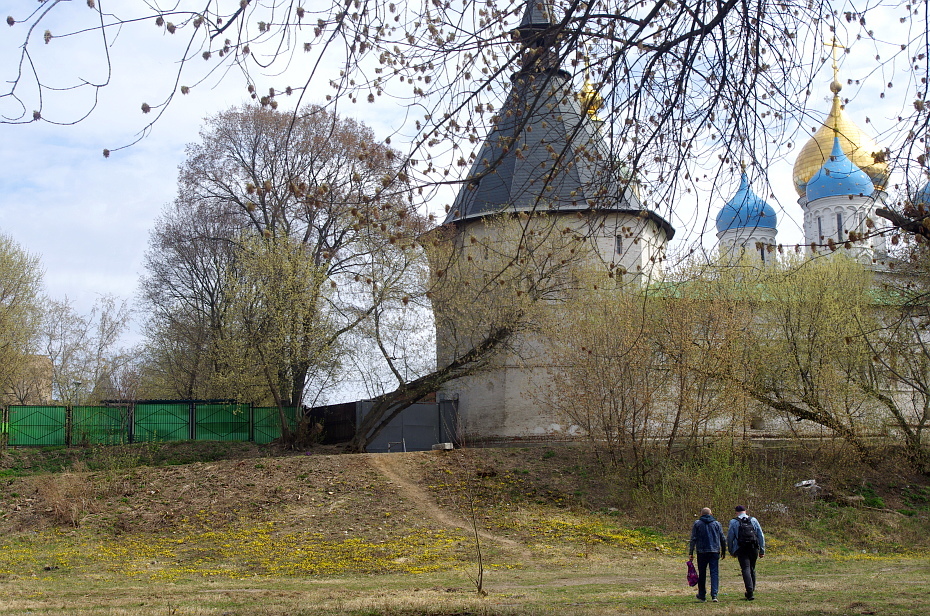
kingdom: Plantae
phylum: Tracheophyta
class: Magnoliopsida
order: Asterales
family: Asteraceae
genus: Tussilago
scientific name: Tussilago farfara
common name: Coltsfoot
